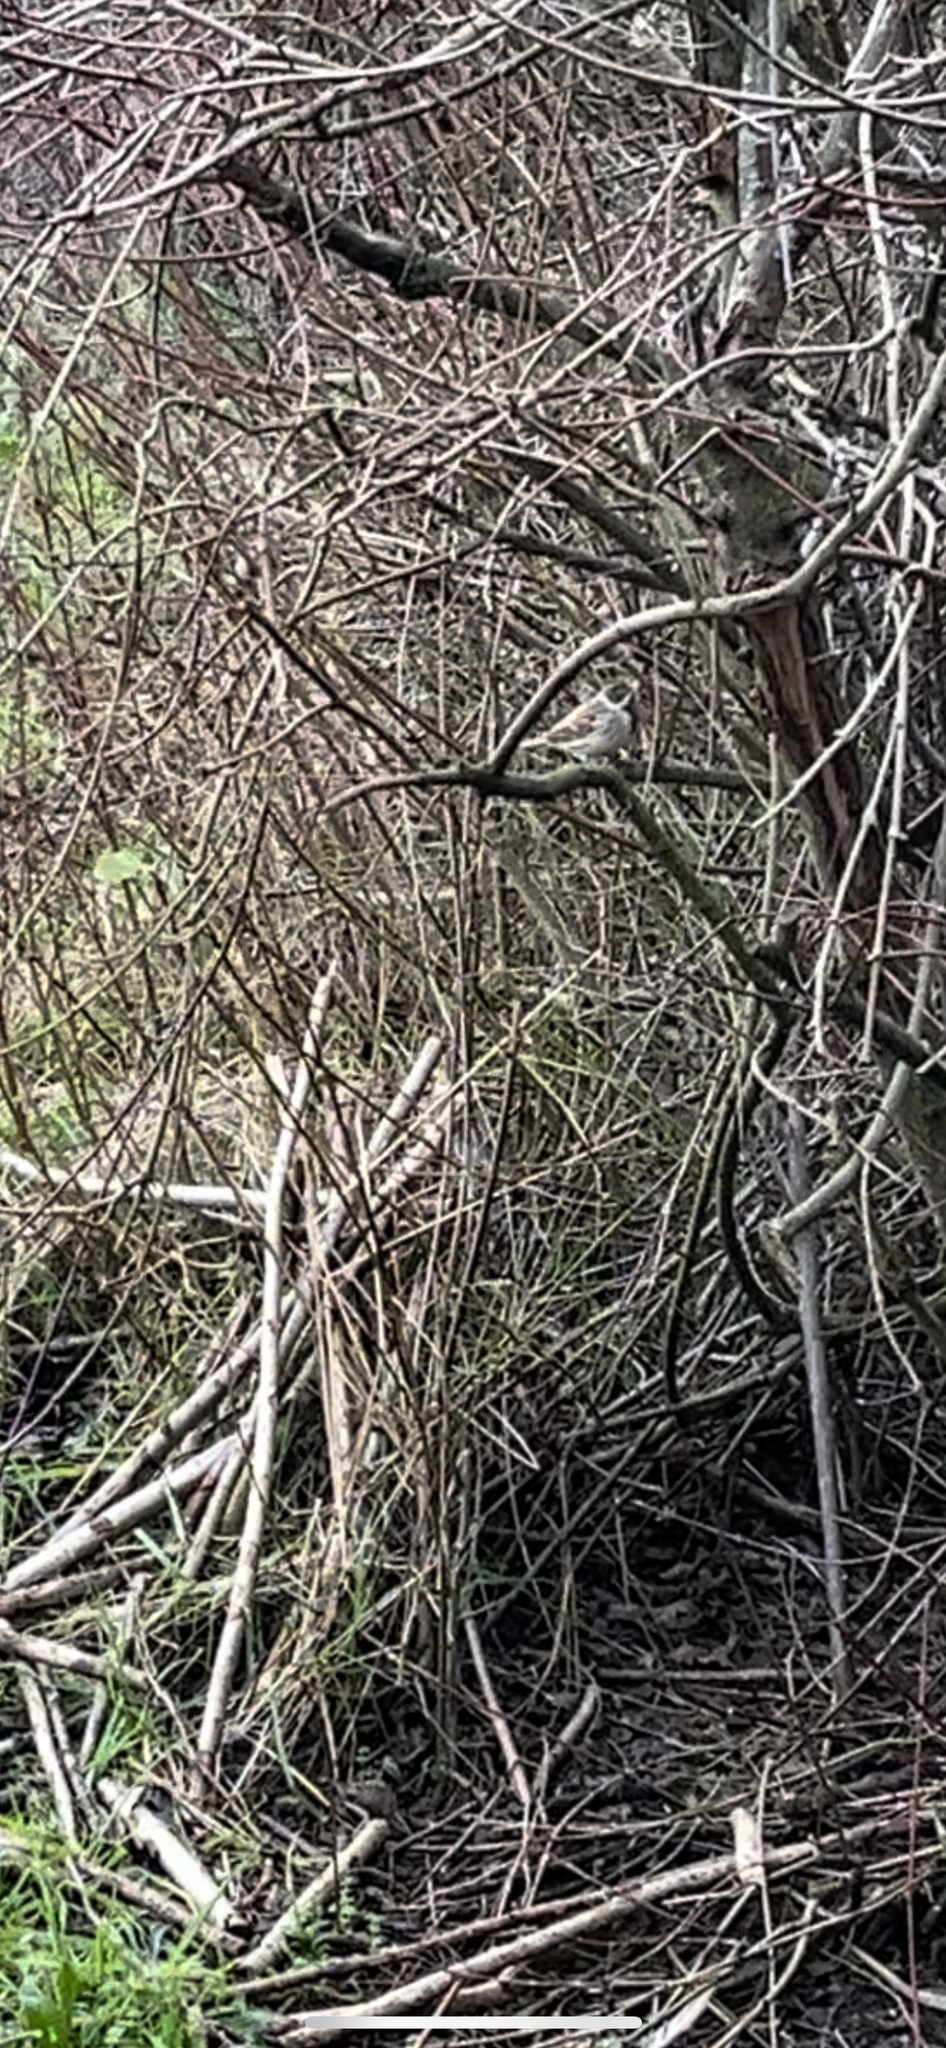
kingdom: Animalia
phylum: Chordata
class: Aves
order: Passeriformes
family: Emberizidae
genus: Emberiza
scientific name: Emberiza schoeniclus
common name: Reed bunting
